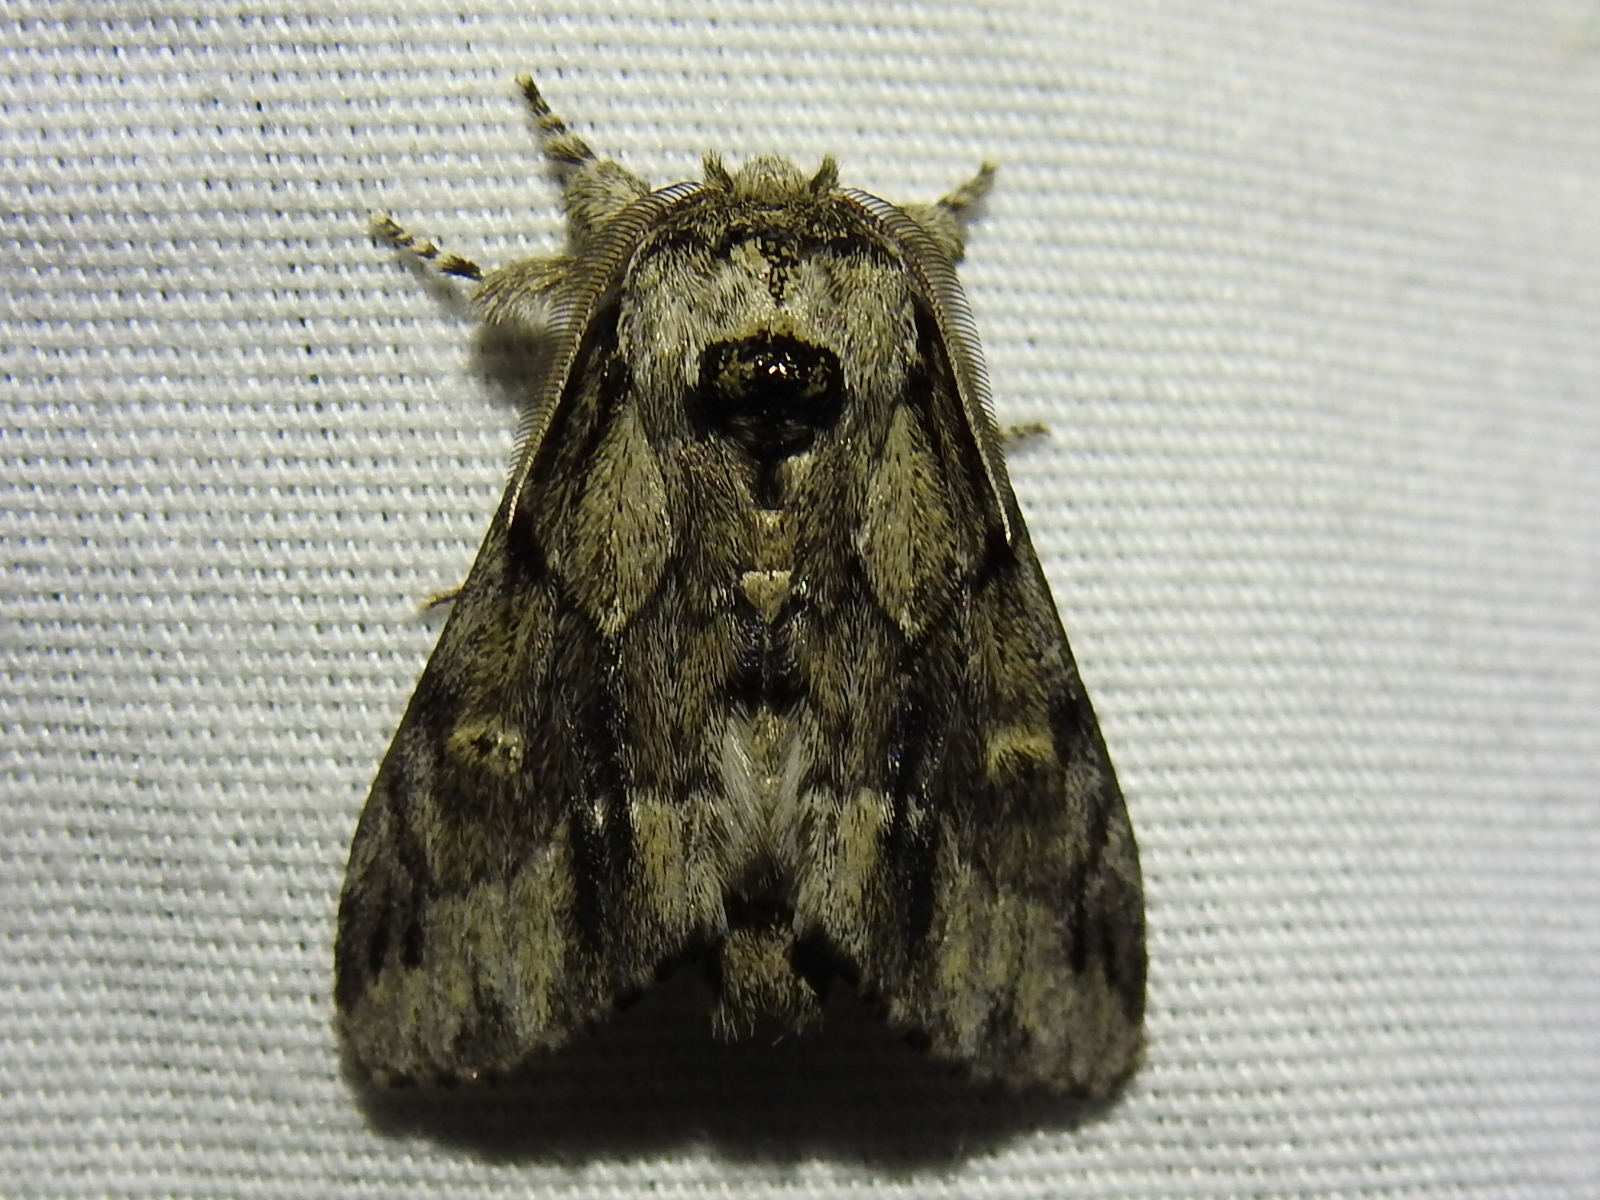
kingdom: Animalia
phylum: Arthropoda
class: Insecta
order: Lepidoptera
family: Notodontidae
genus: Paraeschra
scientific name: Paraeschra georgica
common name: Georgian prominent
